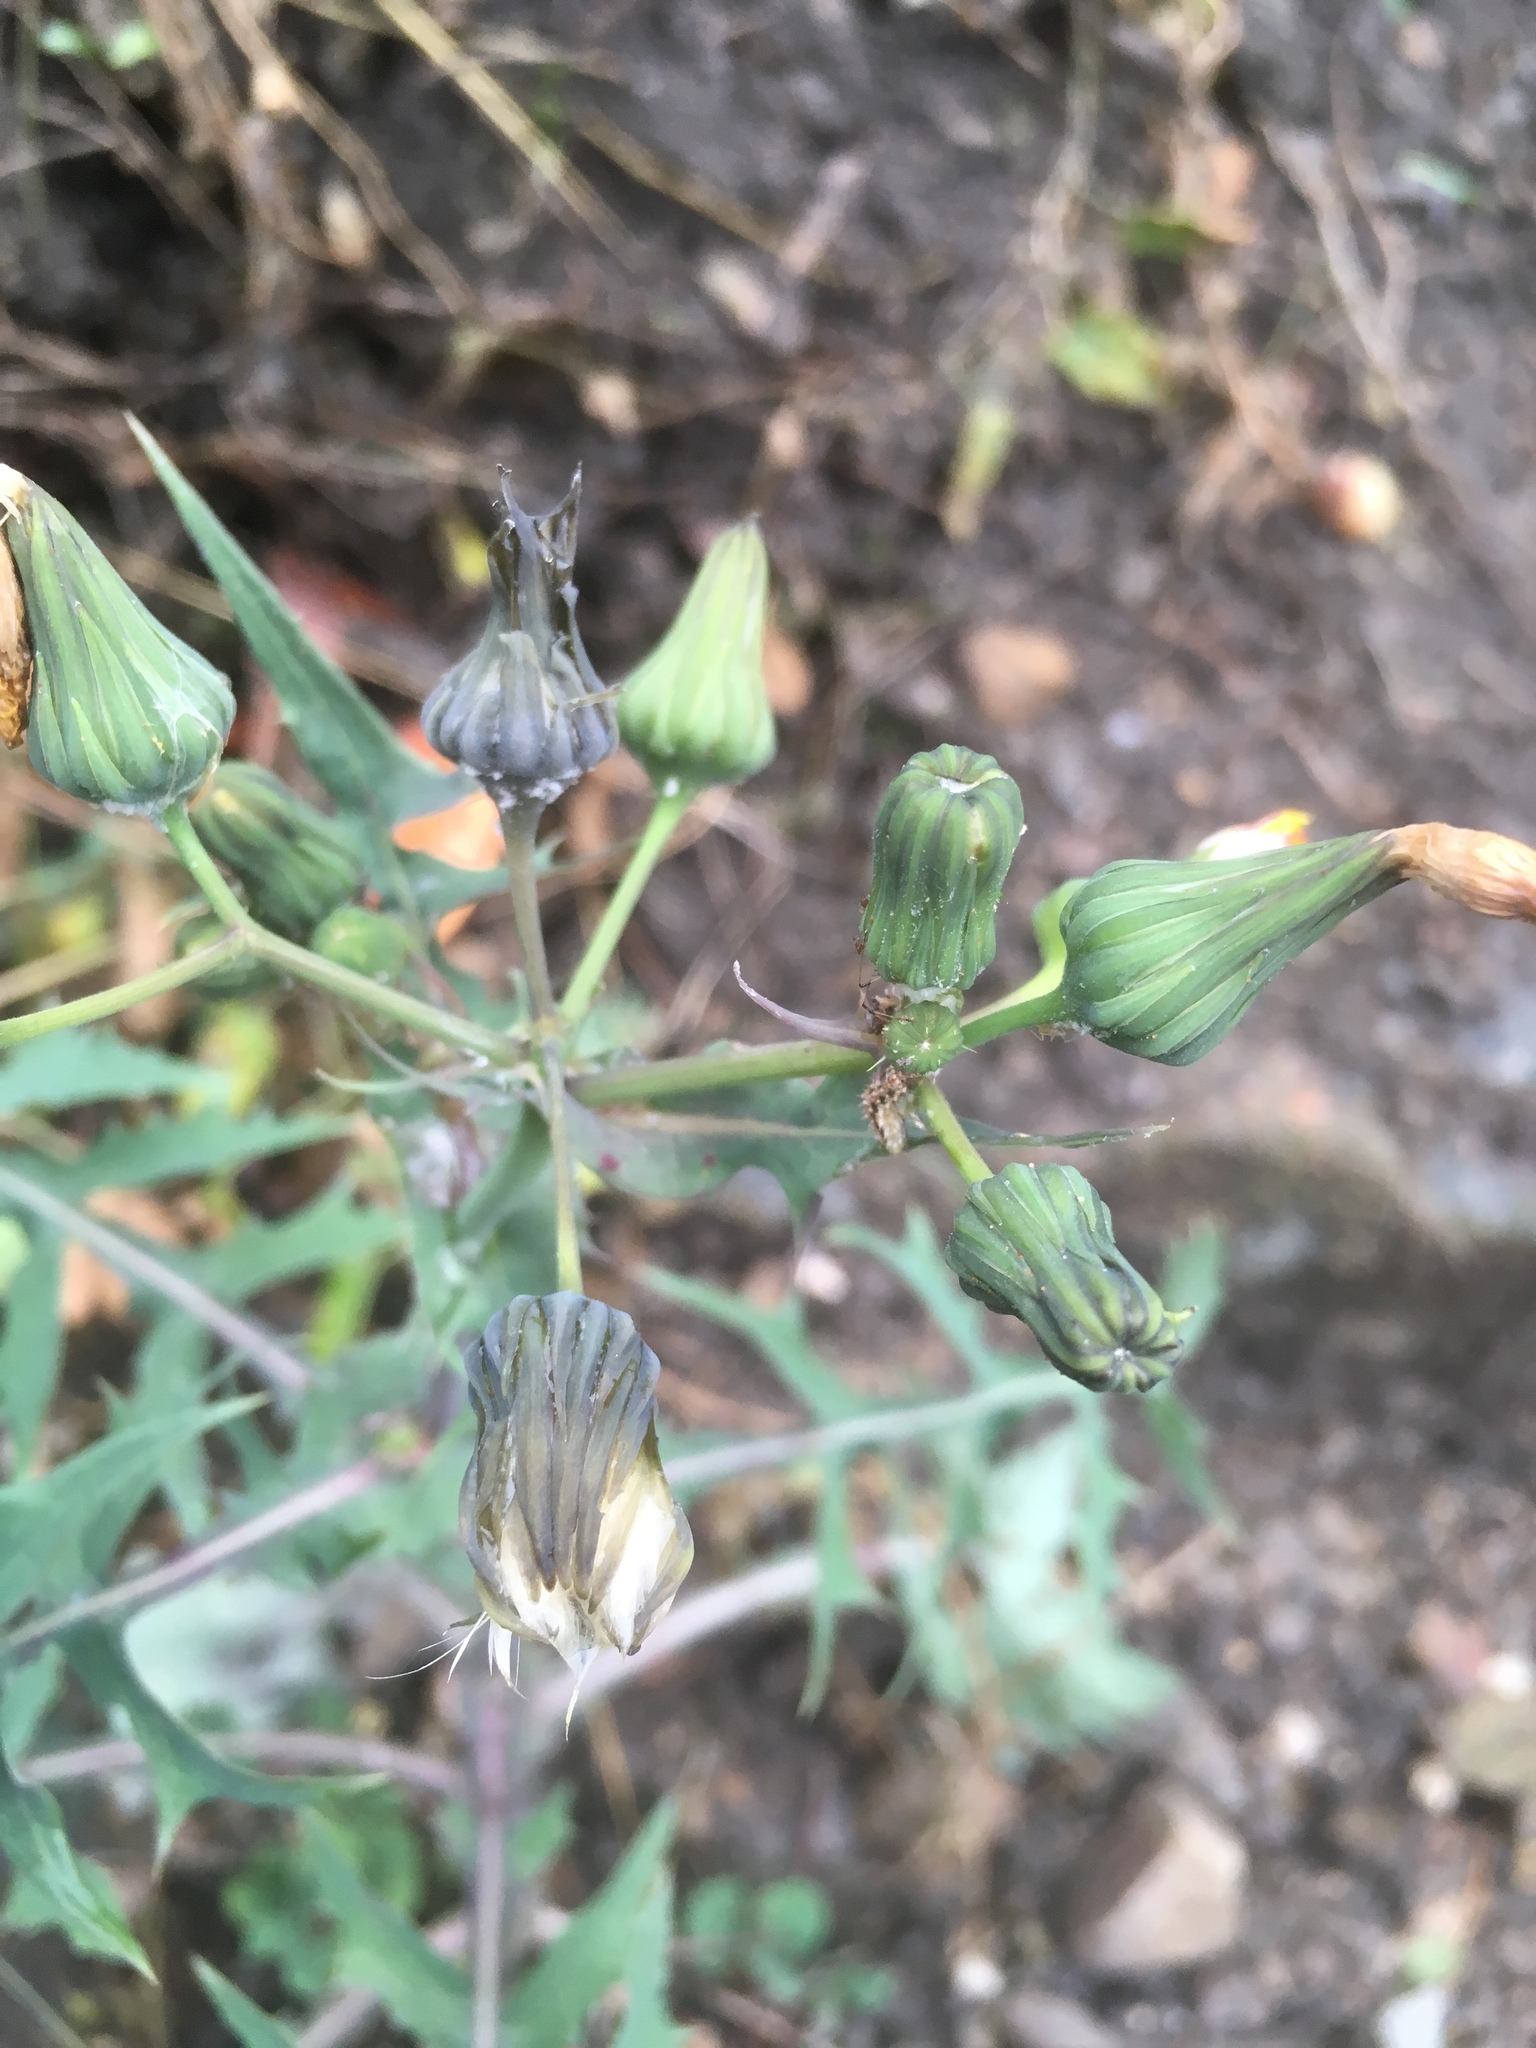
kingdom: Plantae
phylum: Tracheophyta
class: Magnoliopsida
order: Asterales
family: Asteraceae
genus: Sonchus
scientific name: Sonchus oleraceus
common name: Common sowthistle
